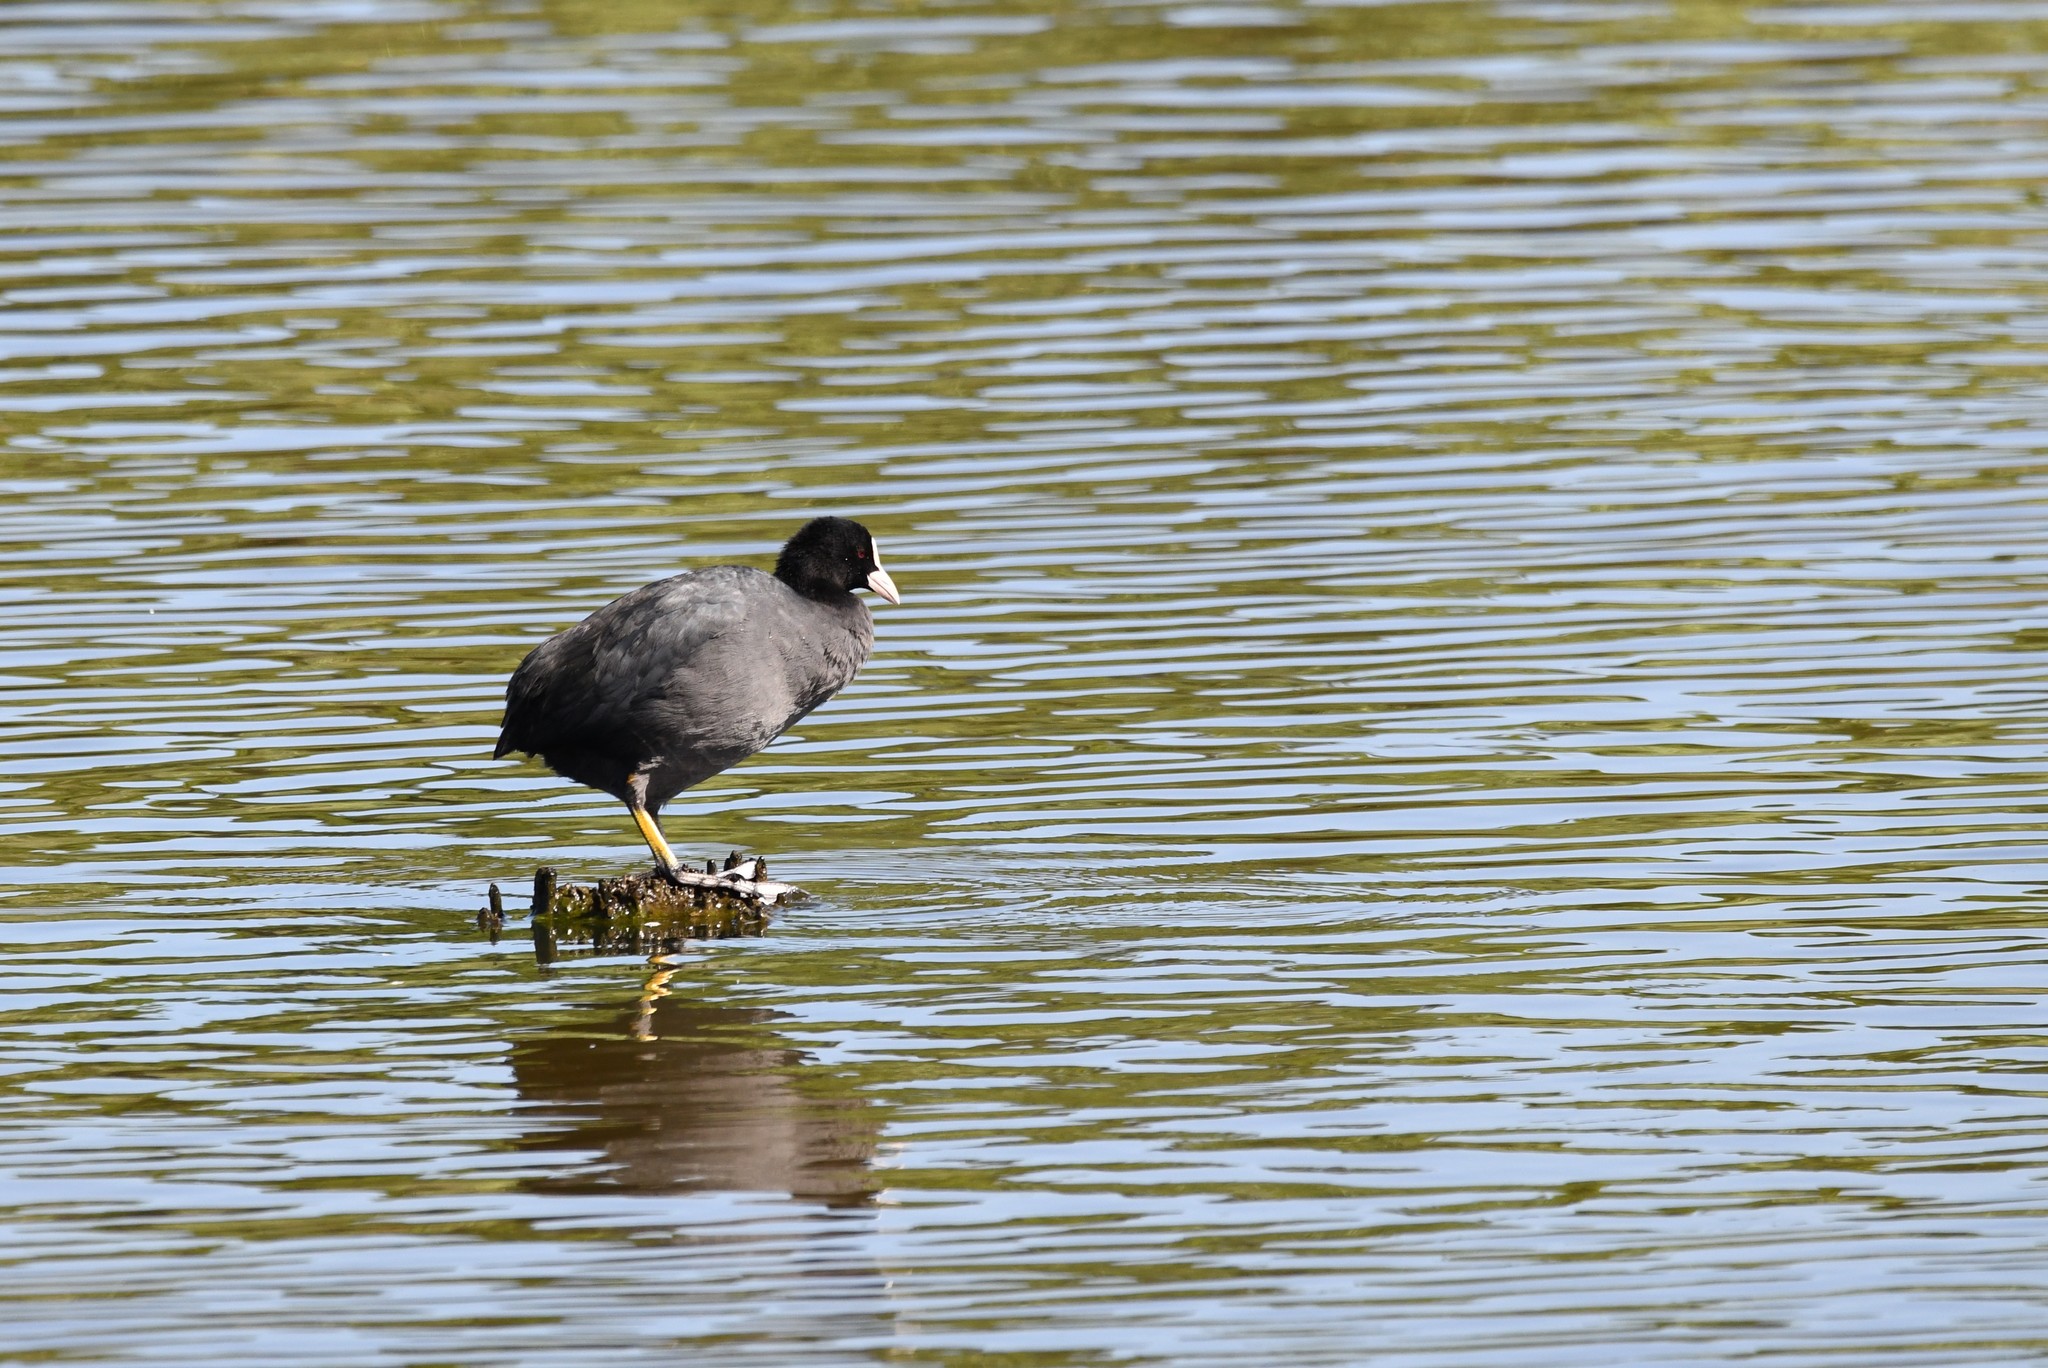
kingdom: Animalia
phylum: Chordata
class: Aves
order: Gruiformes
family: Rallidae
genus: Fulica
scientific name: Fulica atra
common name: Eurasian coot
